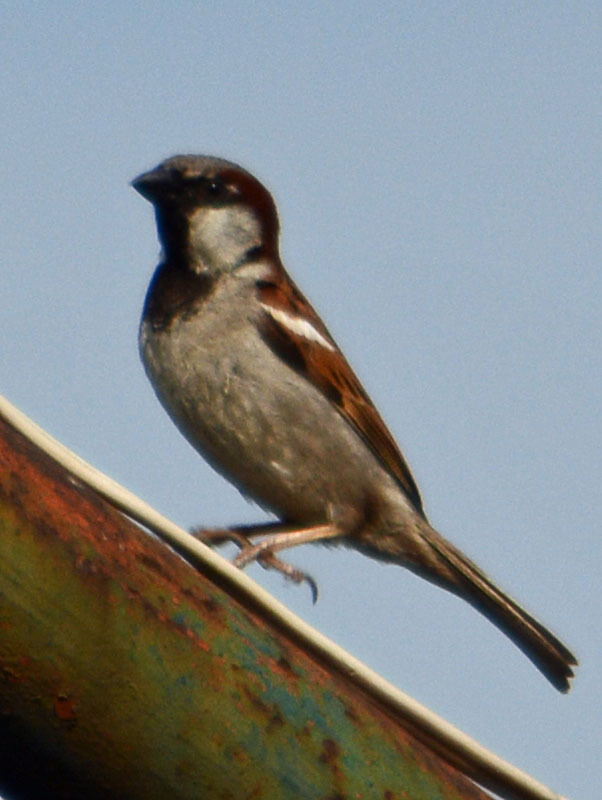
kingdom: Animalia
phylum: Chordata
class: Aves
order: Passeriformes
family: Passeridae
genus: Passer
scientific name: Passer domesticus
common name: House sparrow
